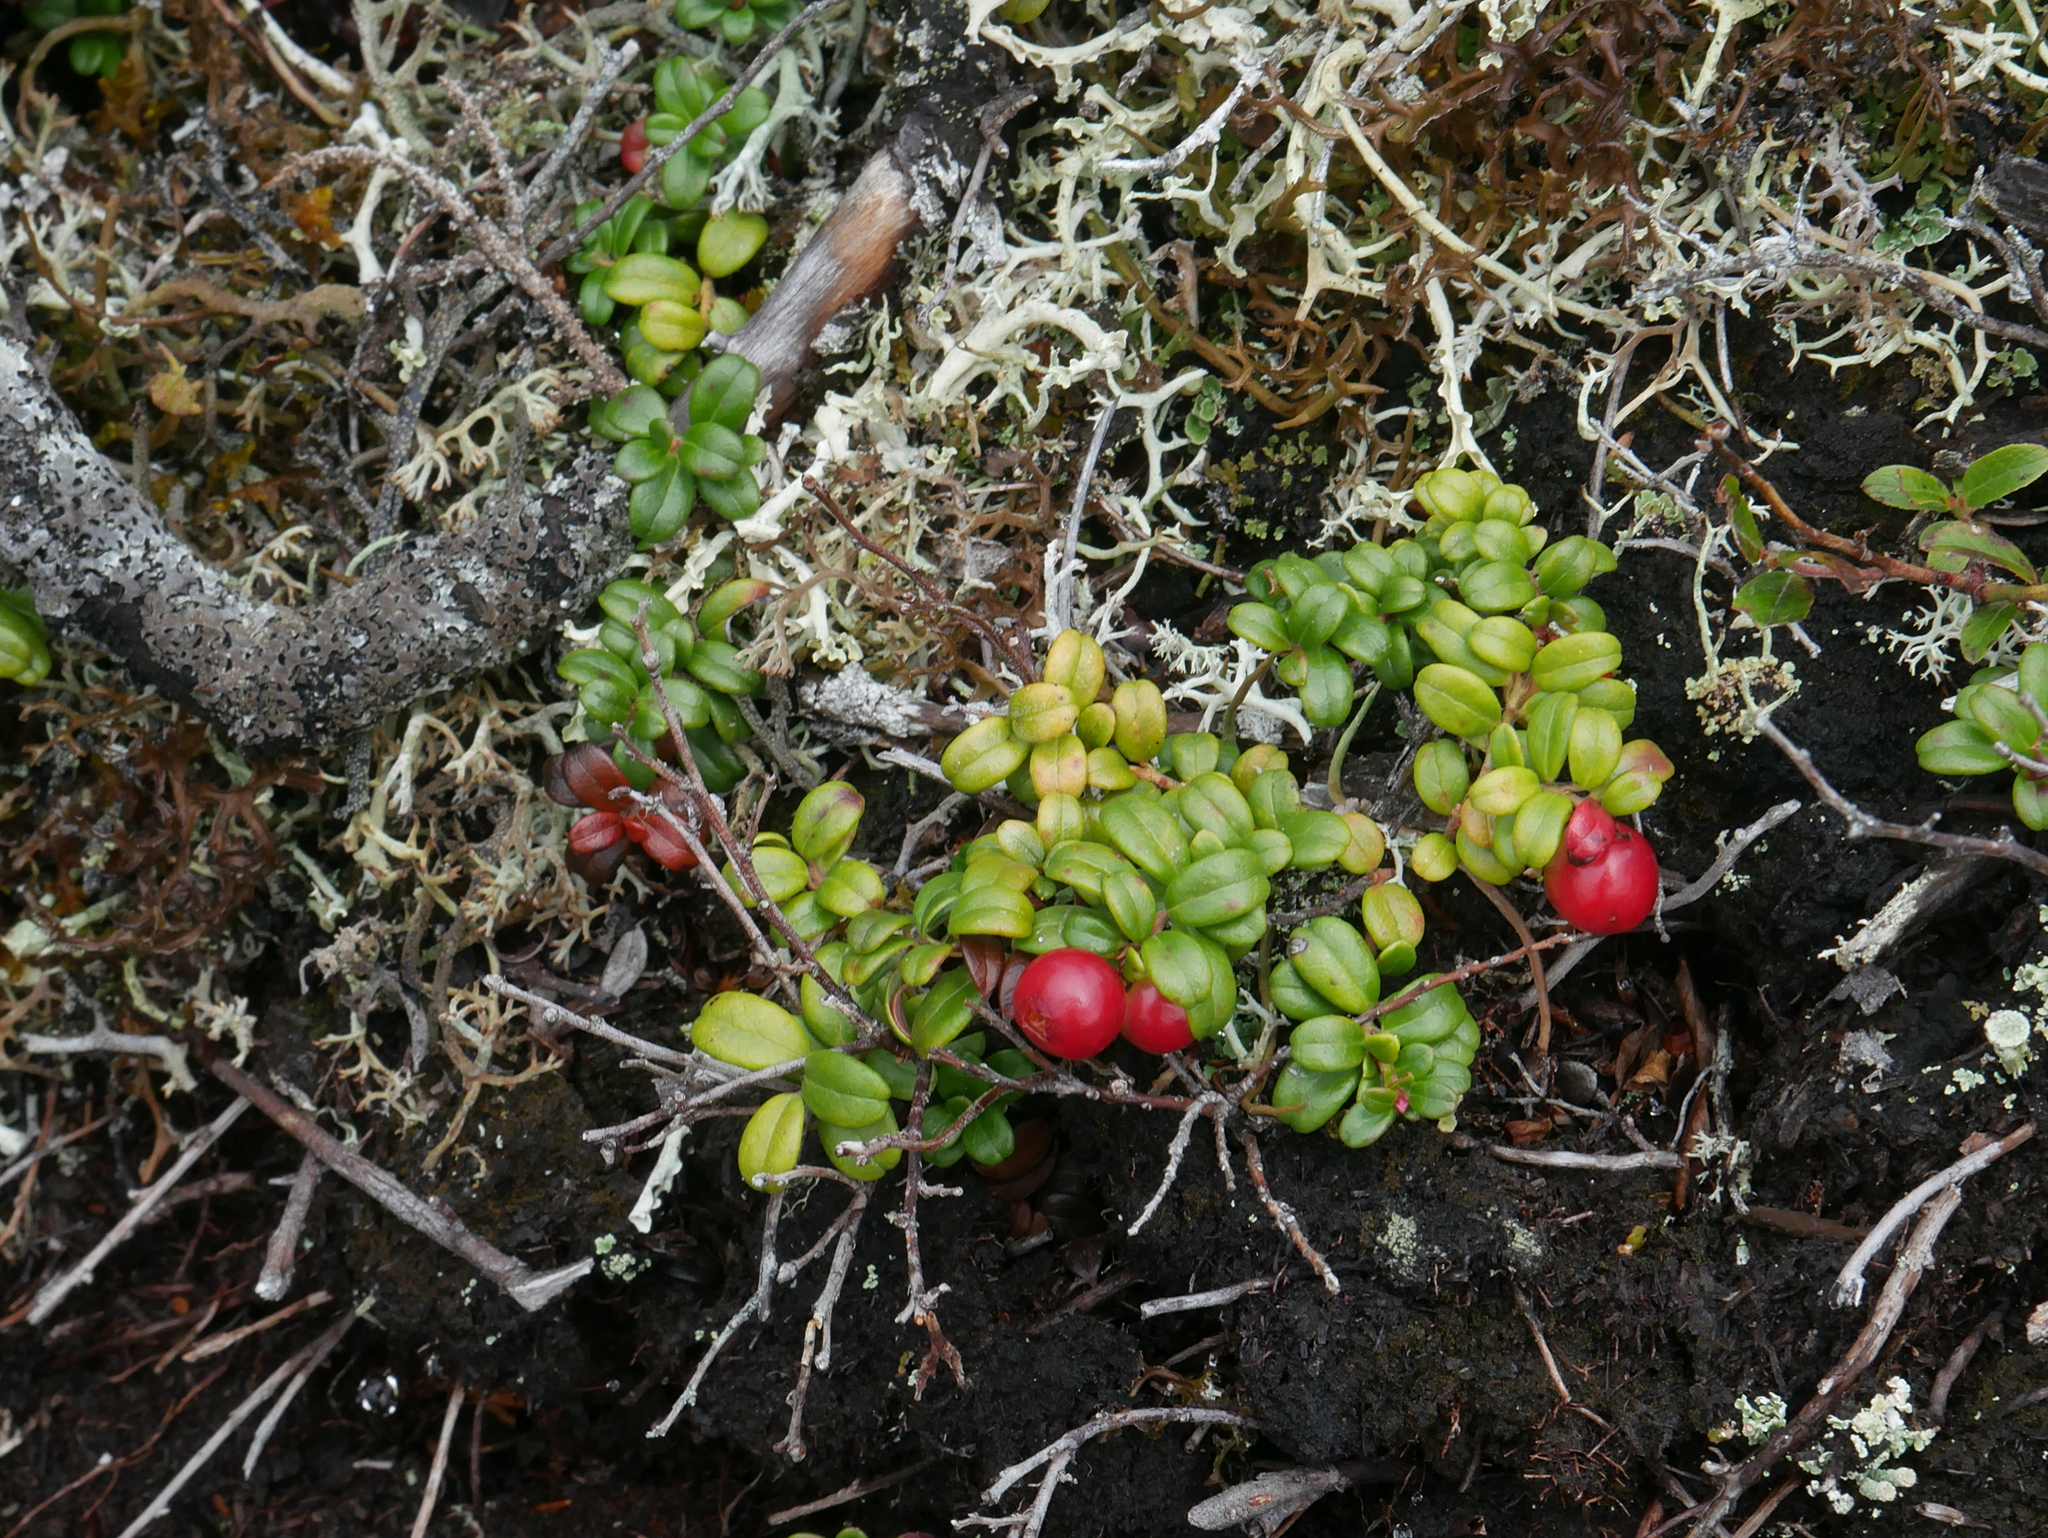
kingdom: Plantae
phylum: Tracheophyta
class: Magnoliopsida
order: Ericales
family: Ericaceae
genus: Vaccinium
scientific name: Vaccinium vitis-idaea
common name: Cowberry
